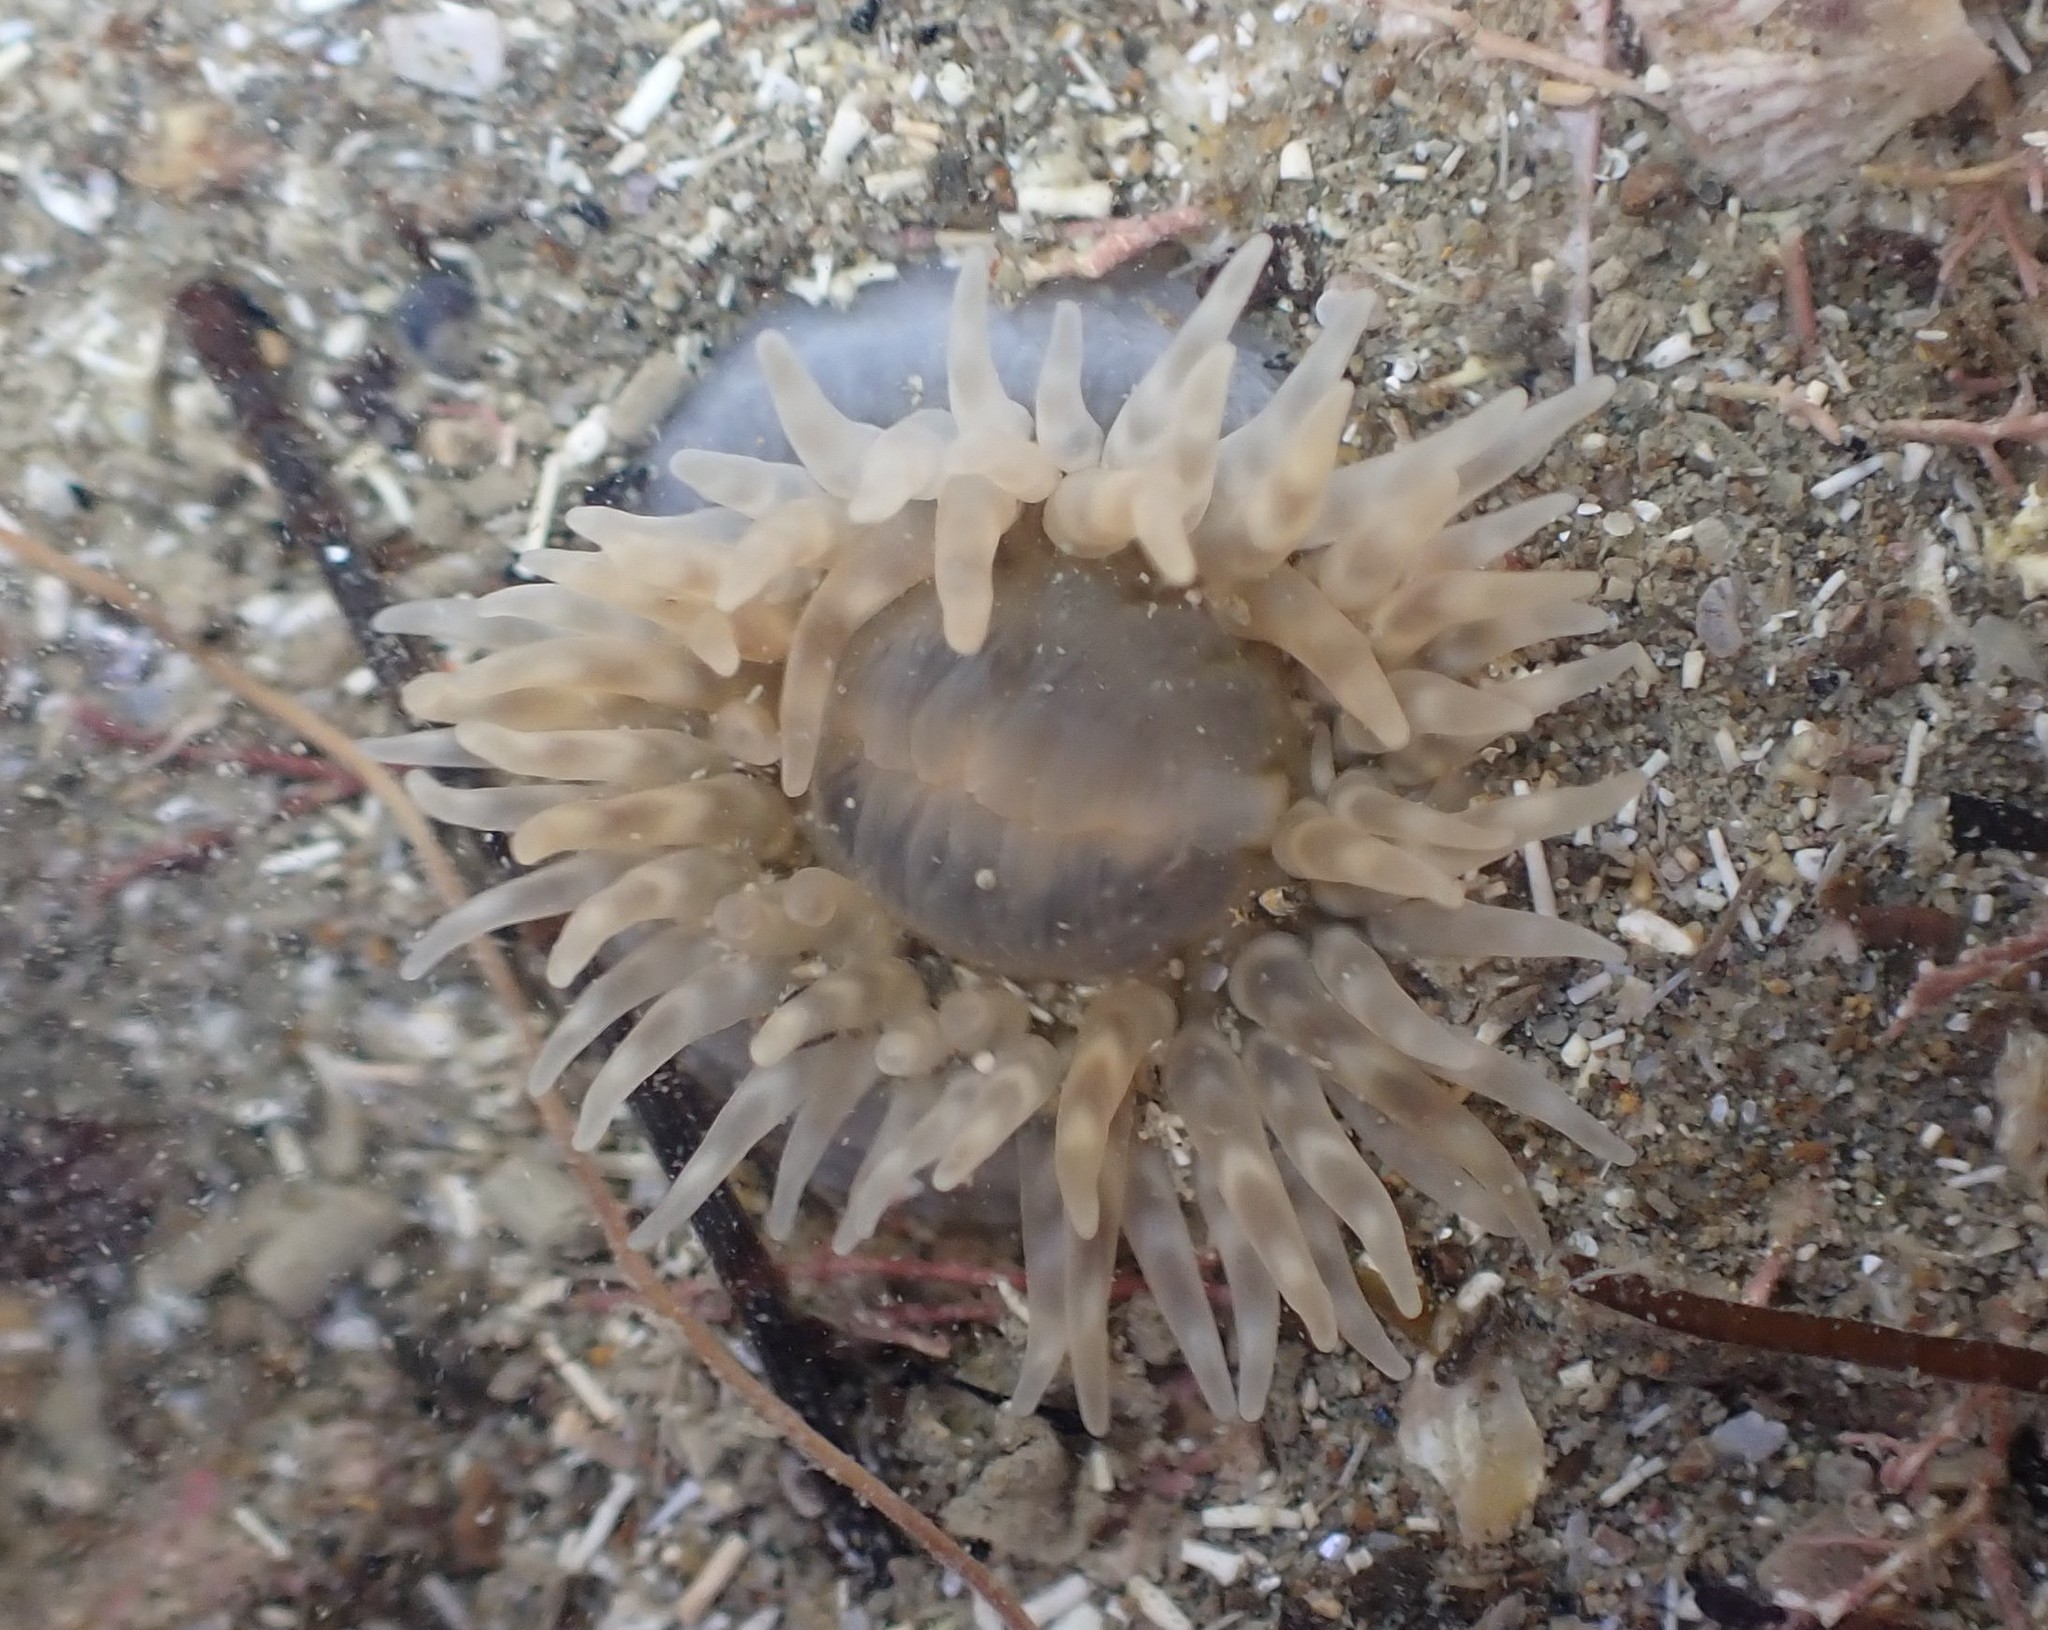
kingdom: Animalia
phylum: Cnidaria
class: Anthozoa
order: Actiniaria
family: Isanthidae
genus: Isoparactis
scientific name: Isoparactis ferax
